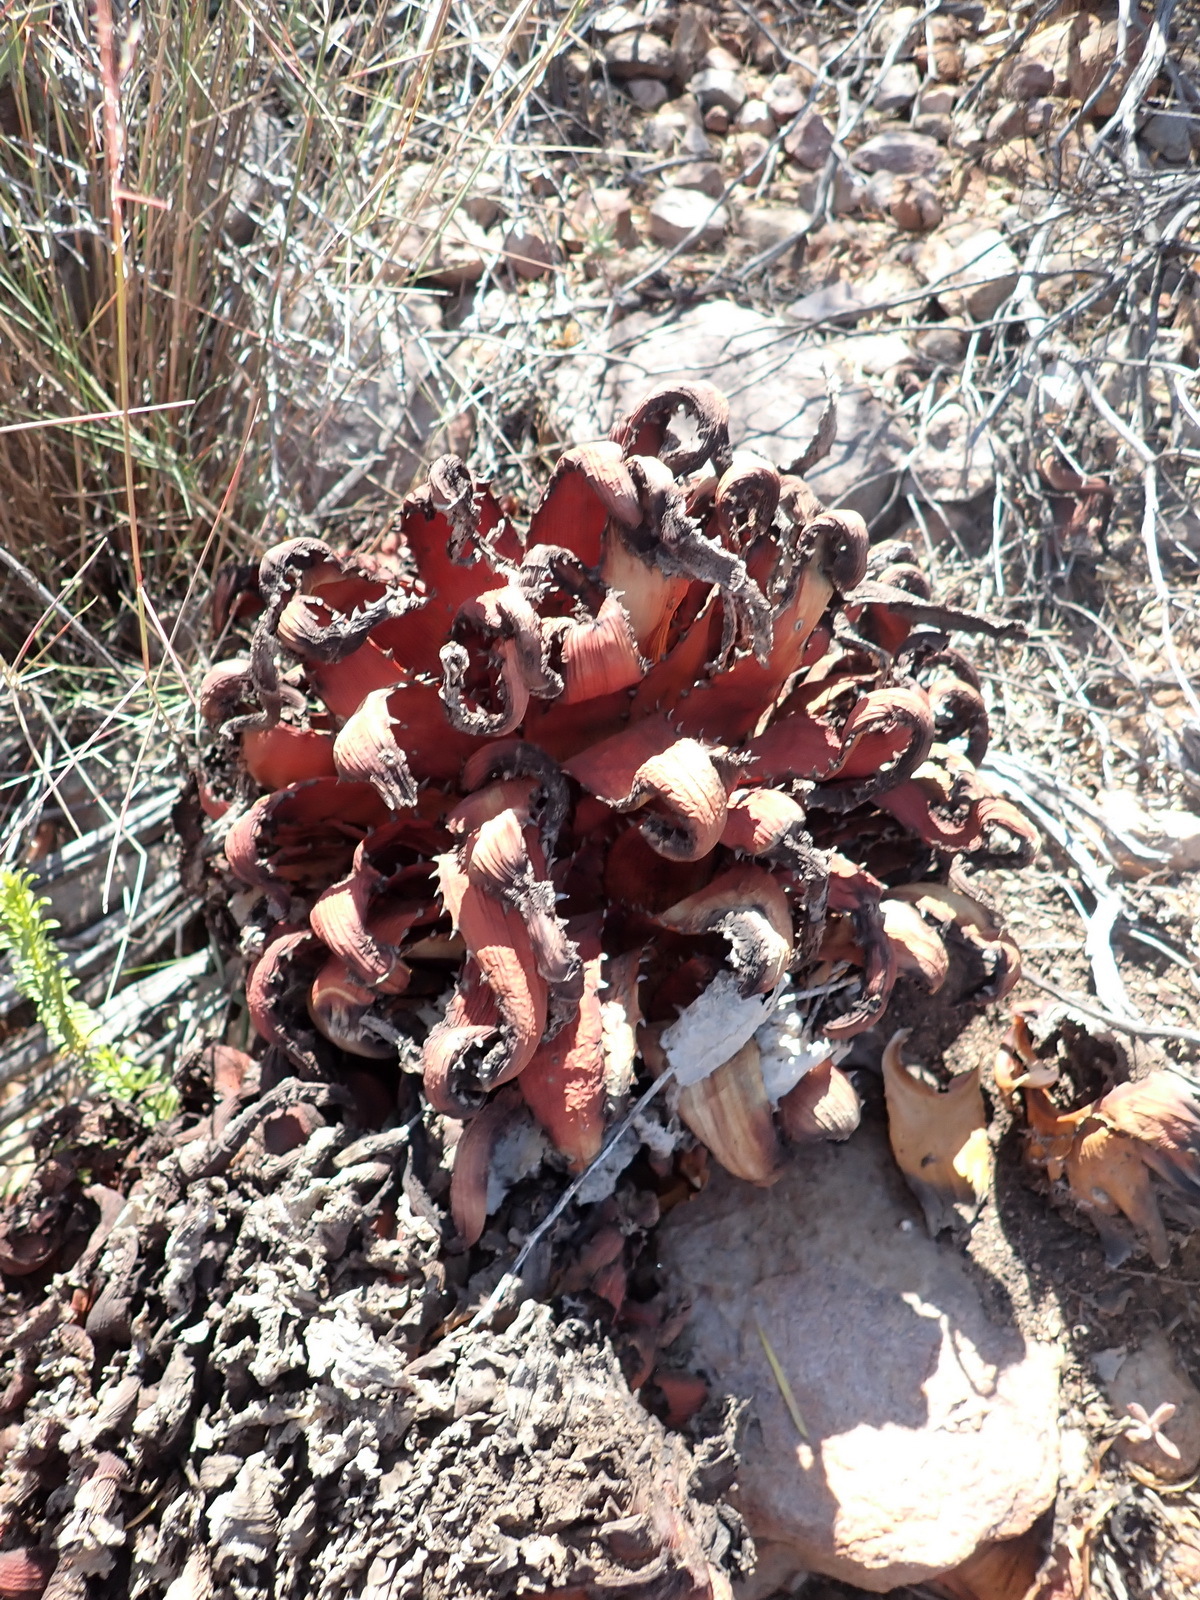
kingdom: Plantae
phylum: Tracheophyta
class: Liliopsida
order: Asparagales
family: Asphodelaceae
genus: Aloe
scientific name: Aloe microstigma
